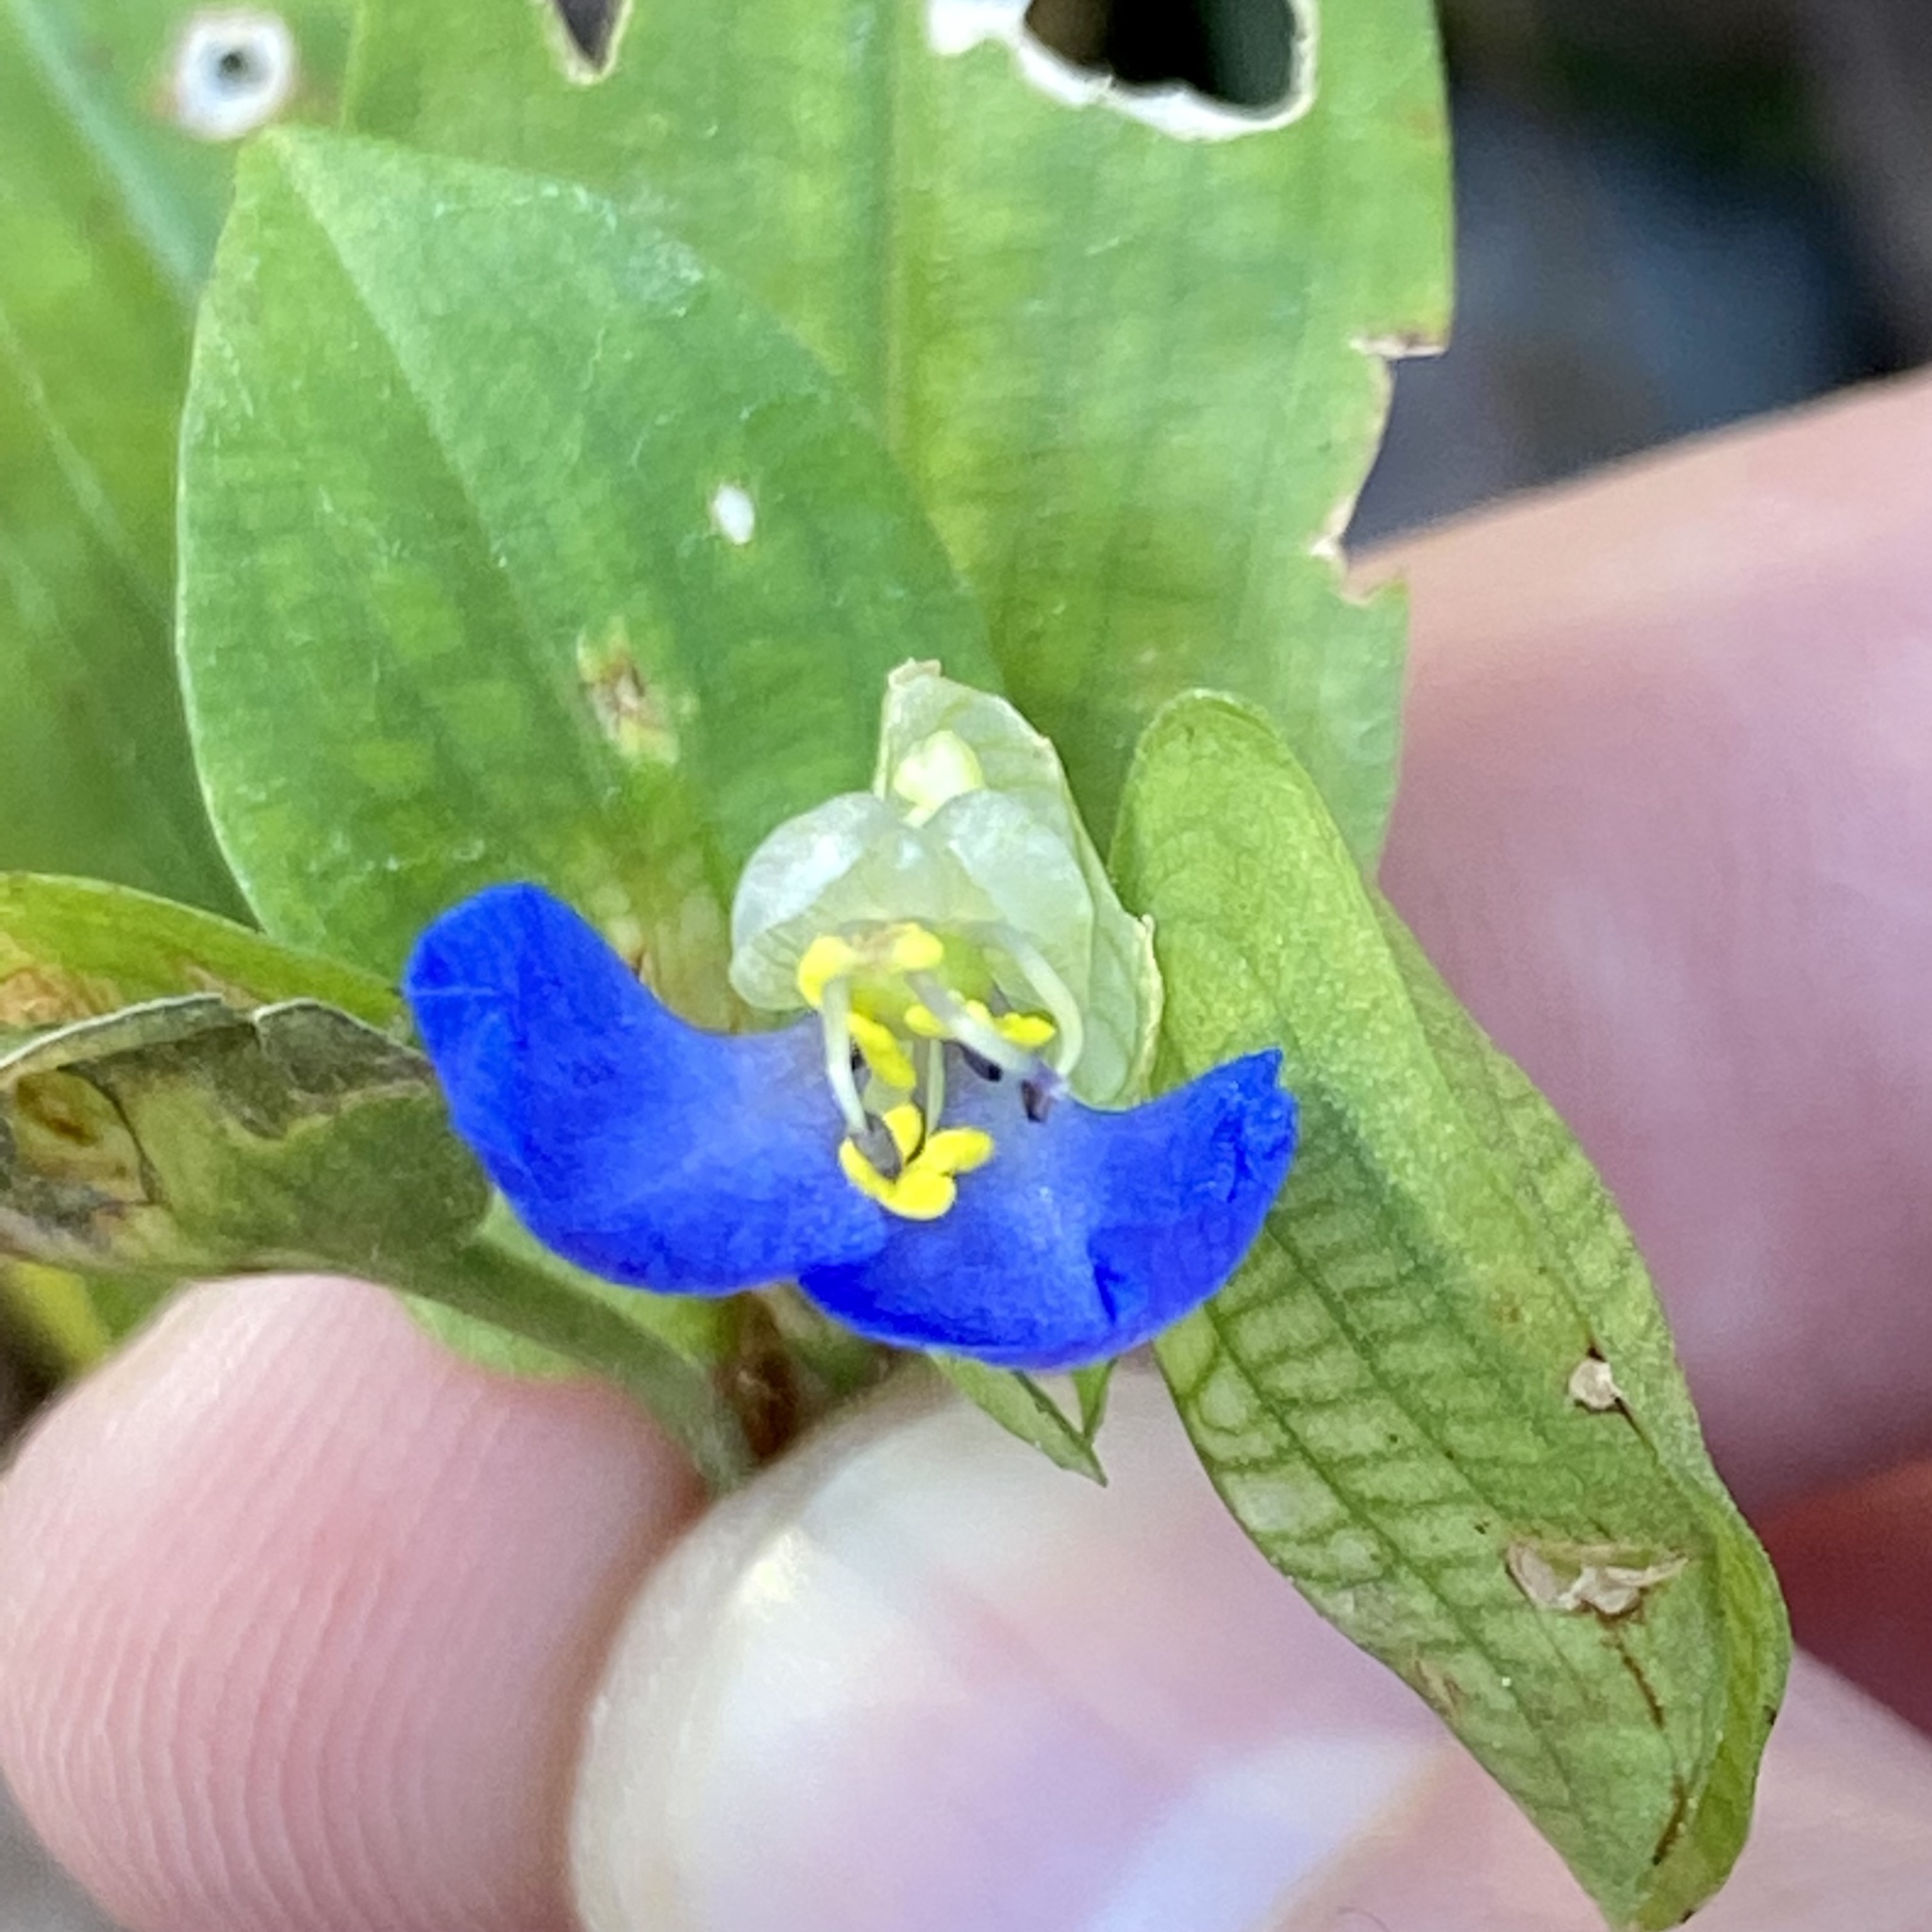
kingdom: Plantae
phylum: Tracheophyta
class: Liliopsida
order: Commelinales
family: Commelinaceae
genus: Commelina
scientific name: Commelina communis
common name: Asiatic dayflower
